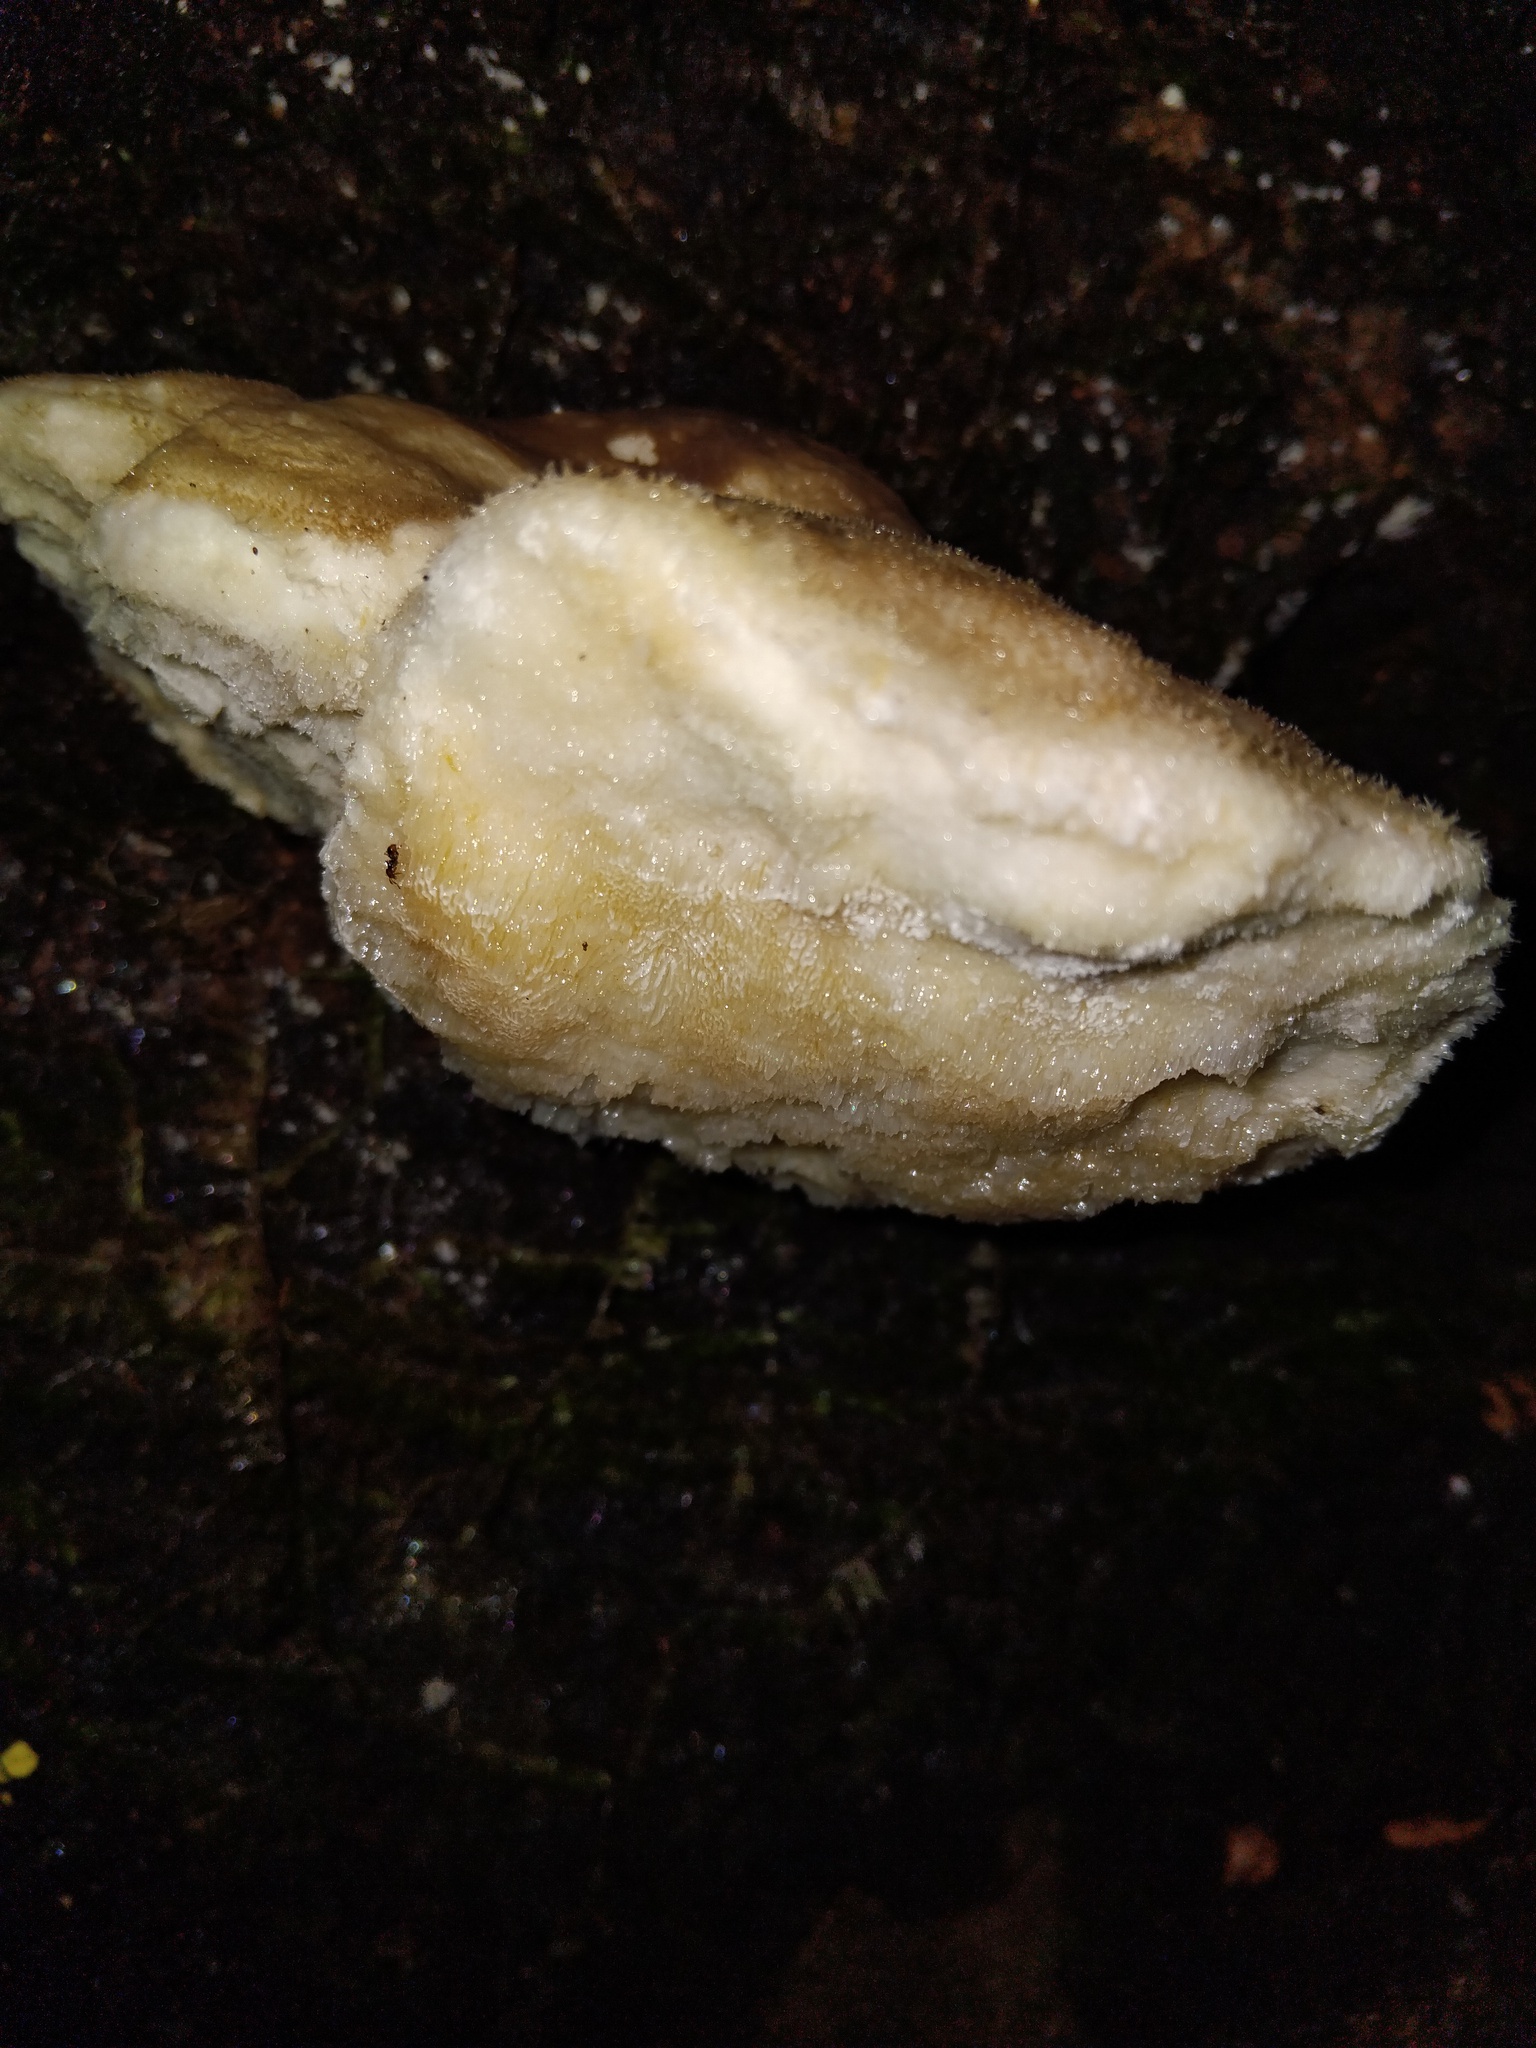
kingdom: Fungi
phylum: Basidiomycota
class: Agaricomycetes
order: Polyporales
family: Laetiporaceae
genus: Laetiporus
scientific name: Laetiporus portentosus
